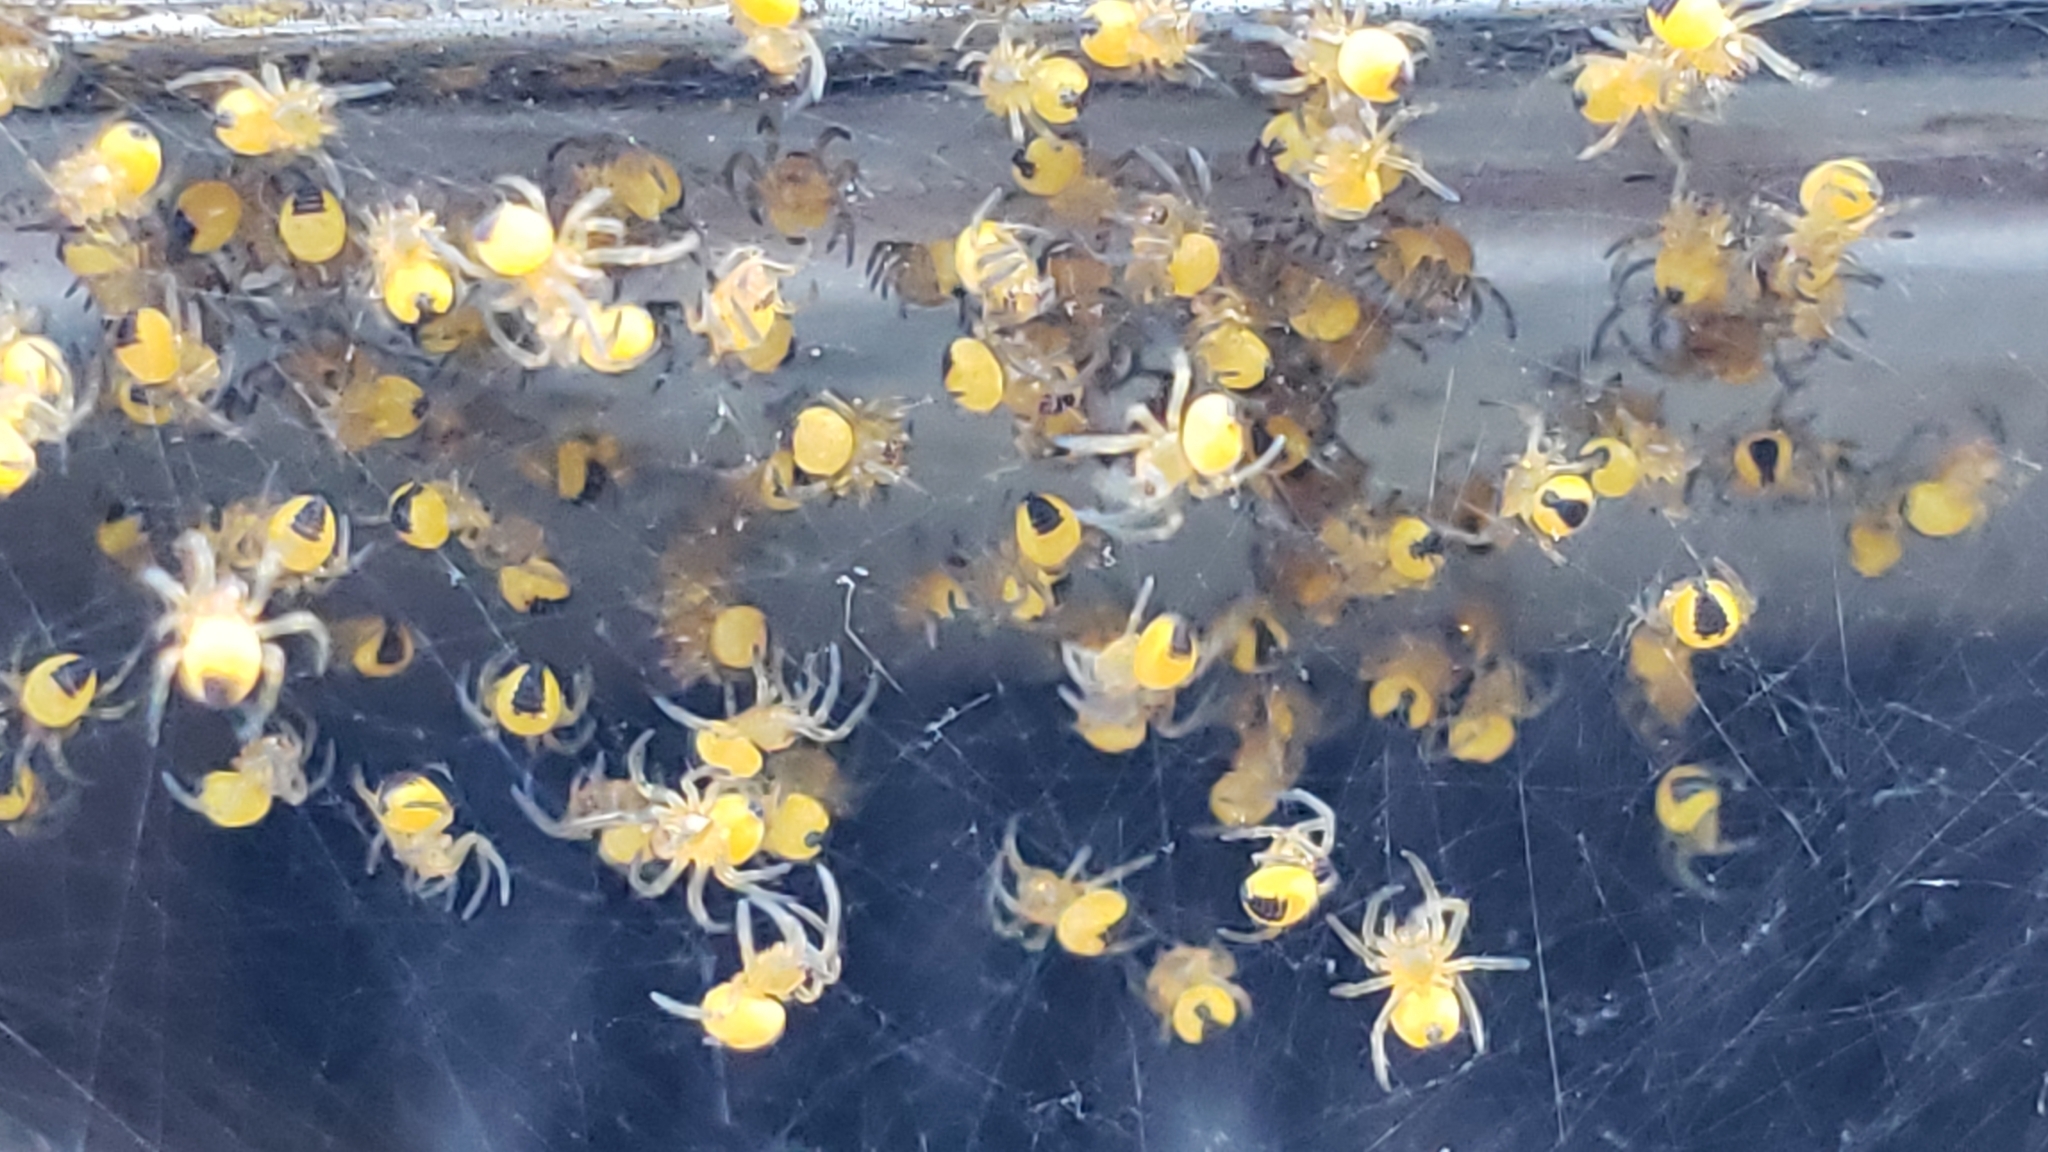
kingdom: Animalia
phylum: Arthropoda
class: Arachnida
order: Araneae
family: Araneidae
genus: Araneus
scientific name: Araneus
